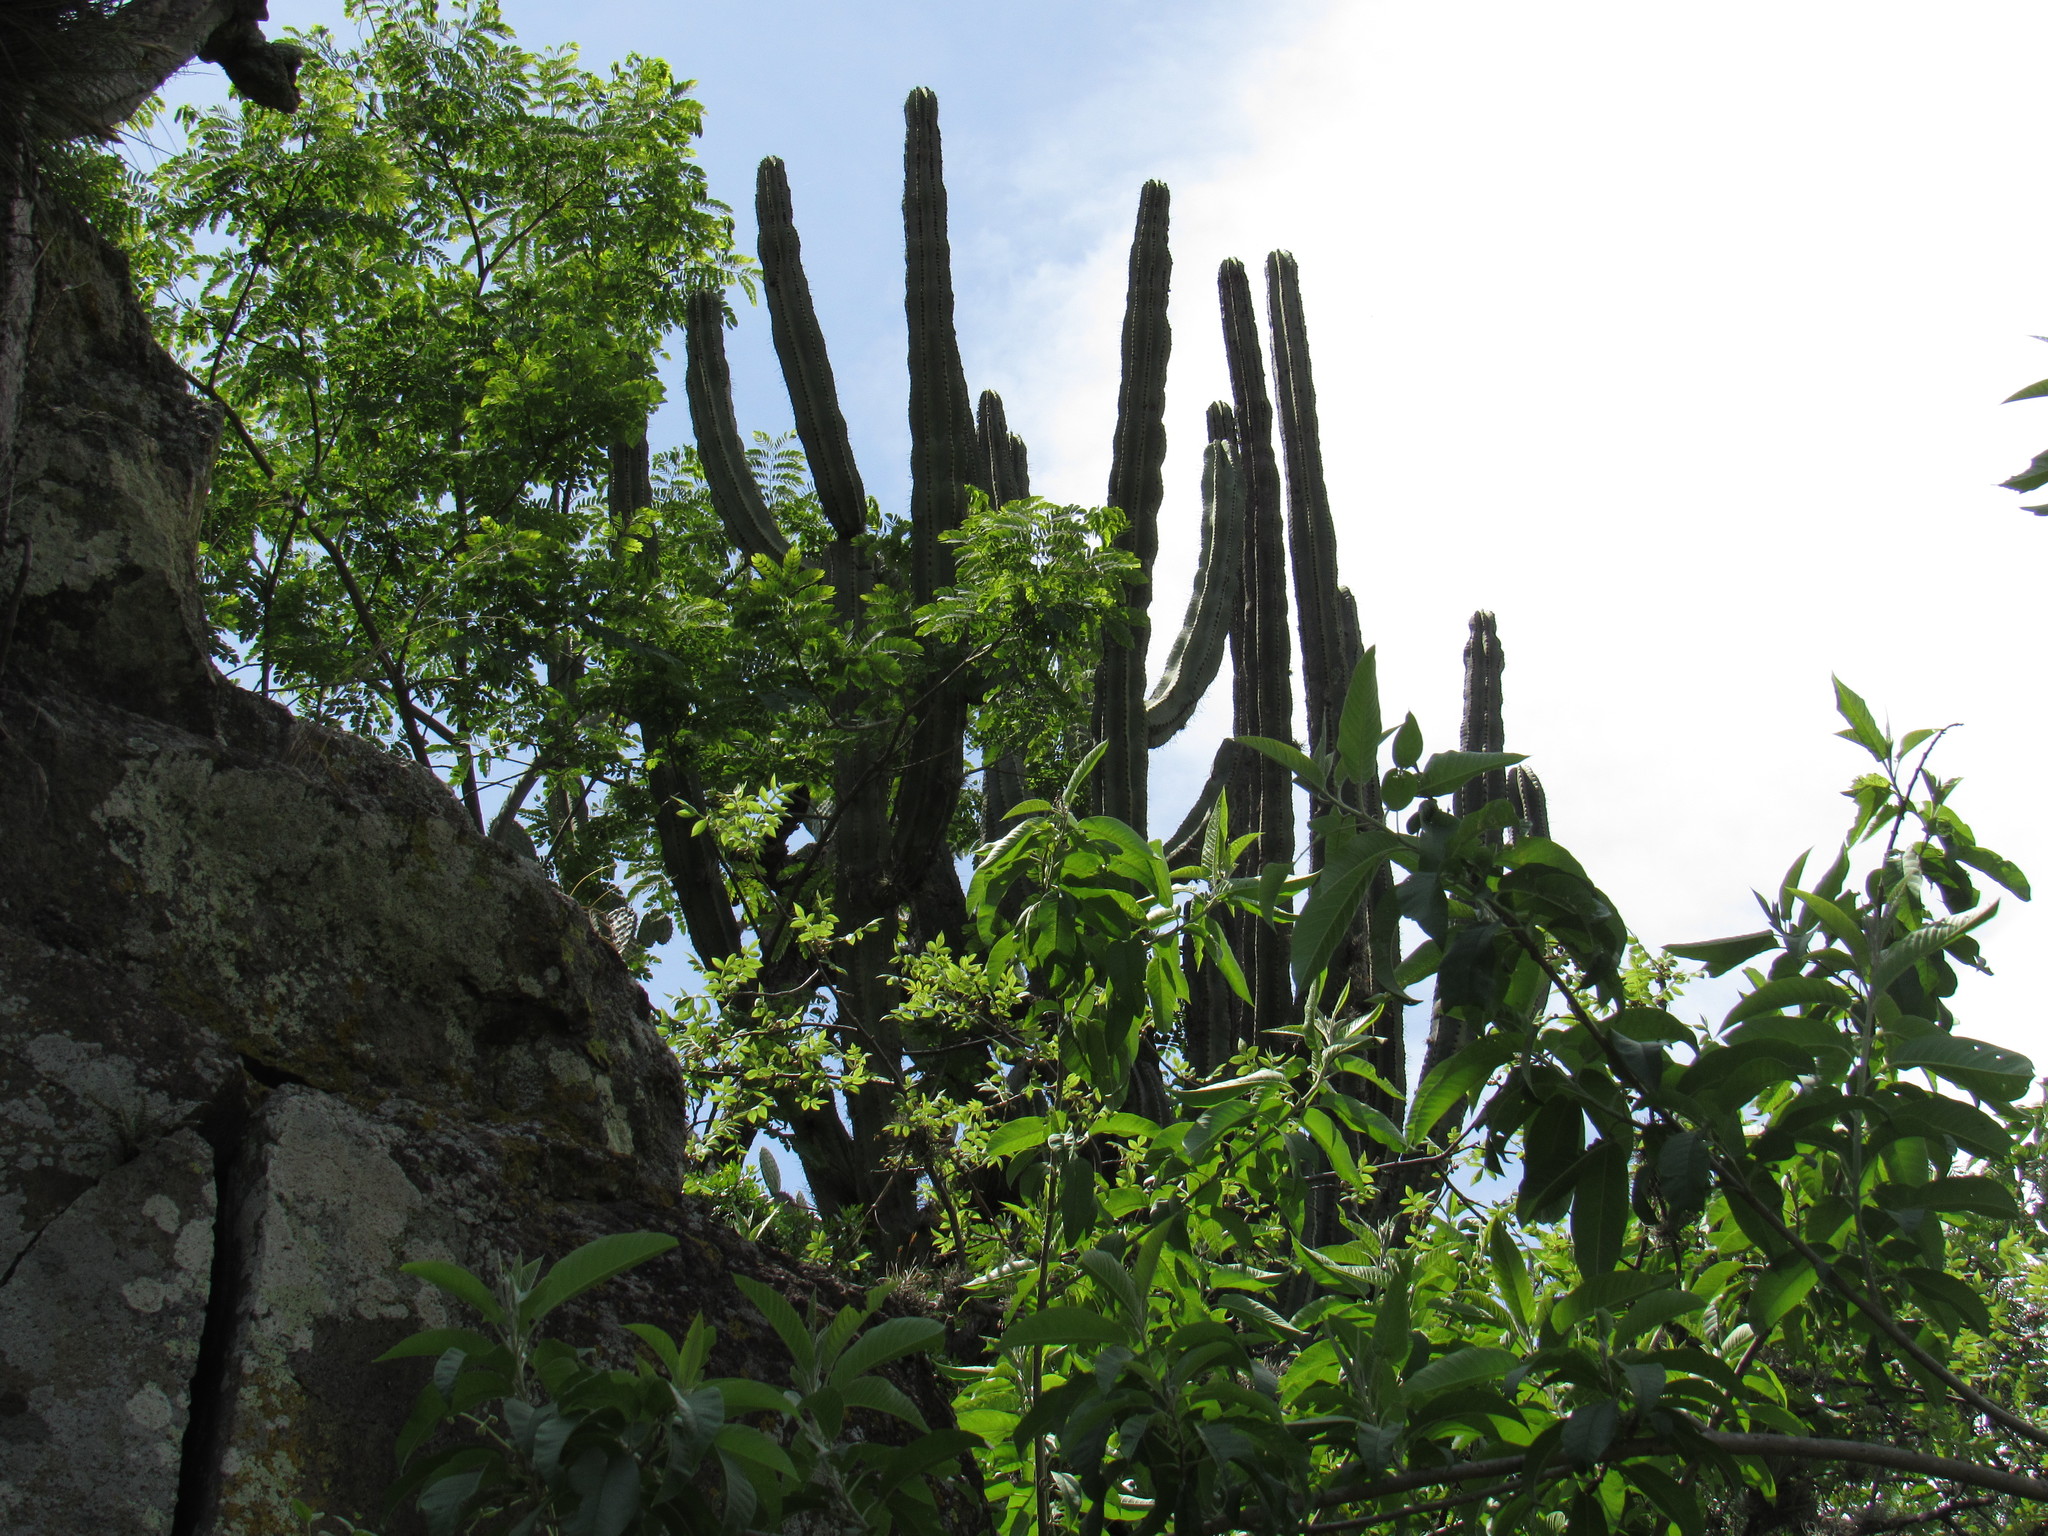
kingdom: Plantae
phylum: Tracheophyta
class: Magnoliopsida
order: Caryophyllales
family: Cactaceae
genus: Stenocereus
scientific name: Stenocereus queretaroensis
